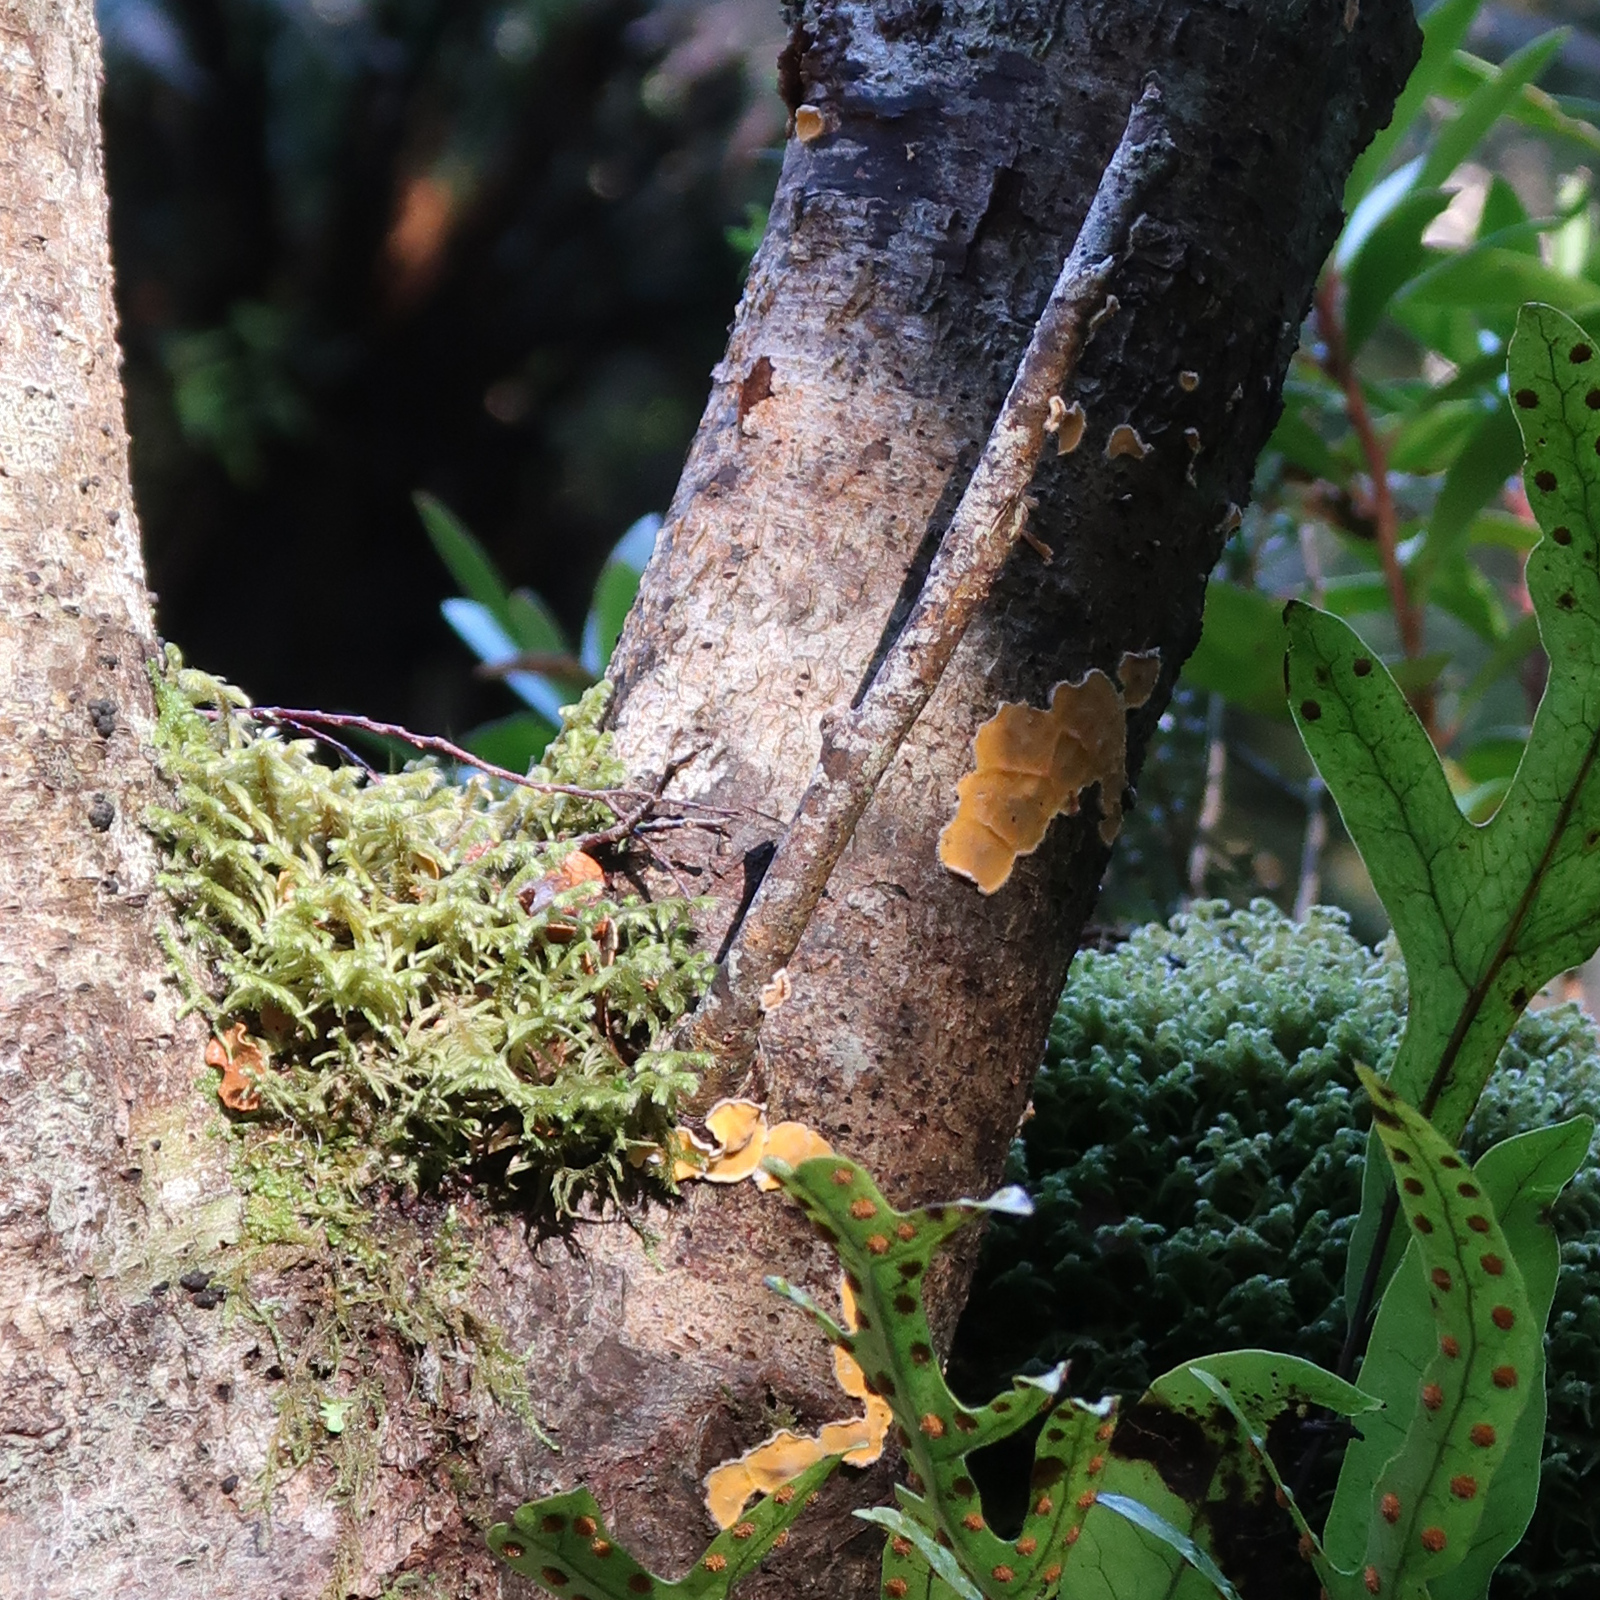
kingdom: Fungi
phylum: Basidiomycota
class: Agaricomycetes
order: Russulales
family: Stereaceae
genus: Stereodiscus
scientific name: Stereodiscus limonisporus
